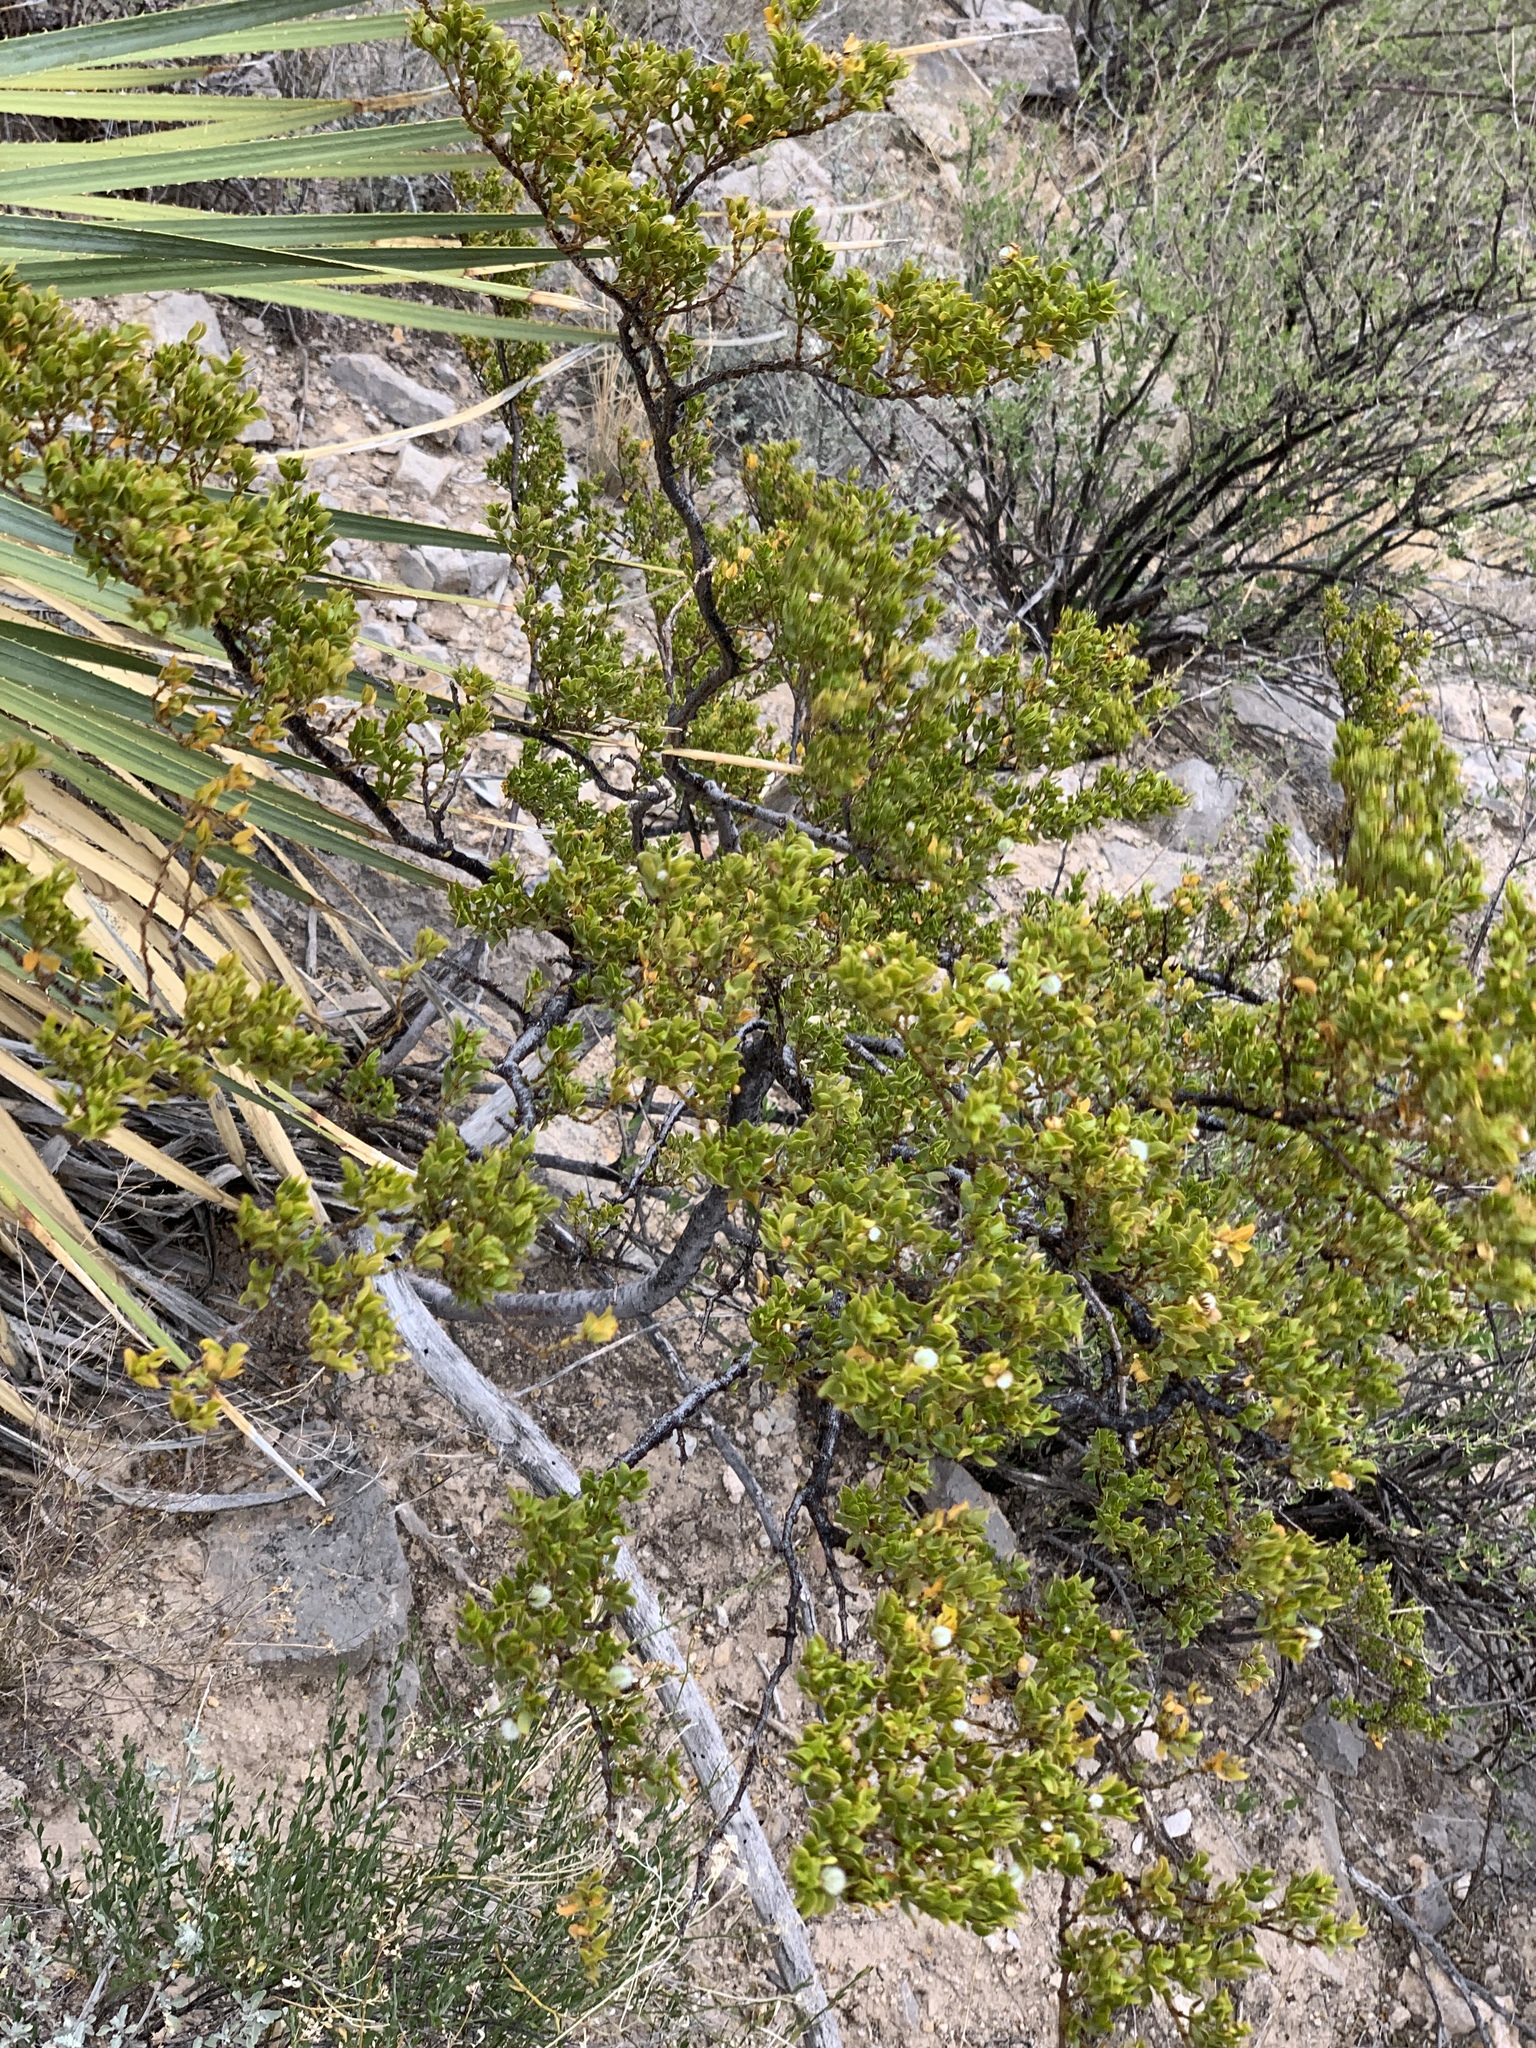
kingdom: Plantae
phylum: Tracheophyta
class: Magnoliopsida
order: Zygophyllales
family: Zygophyllaceae
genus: Larrea
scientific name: Larrea tridentata
